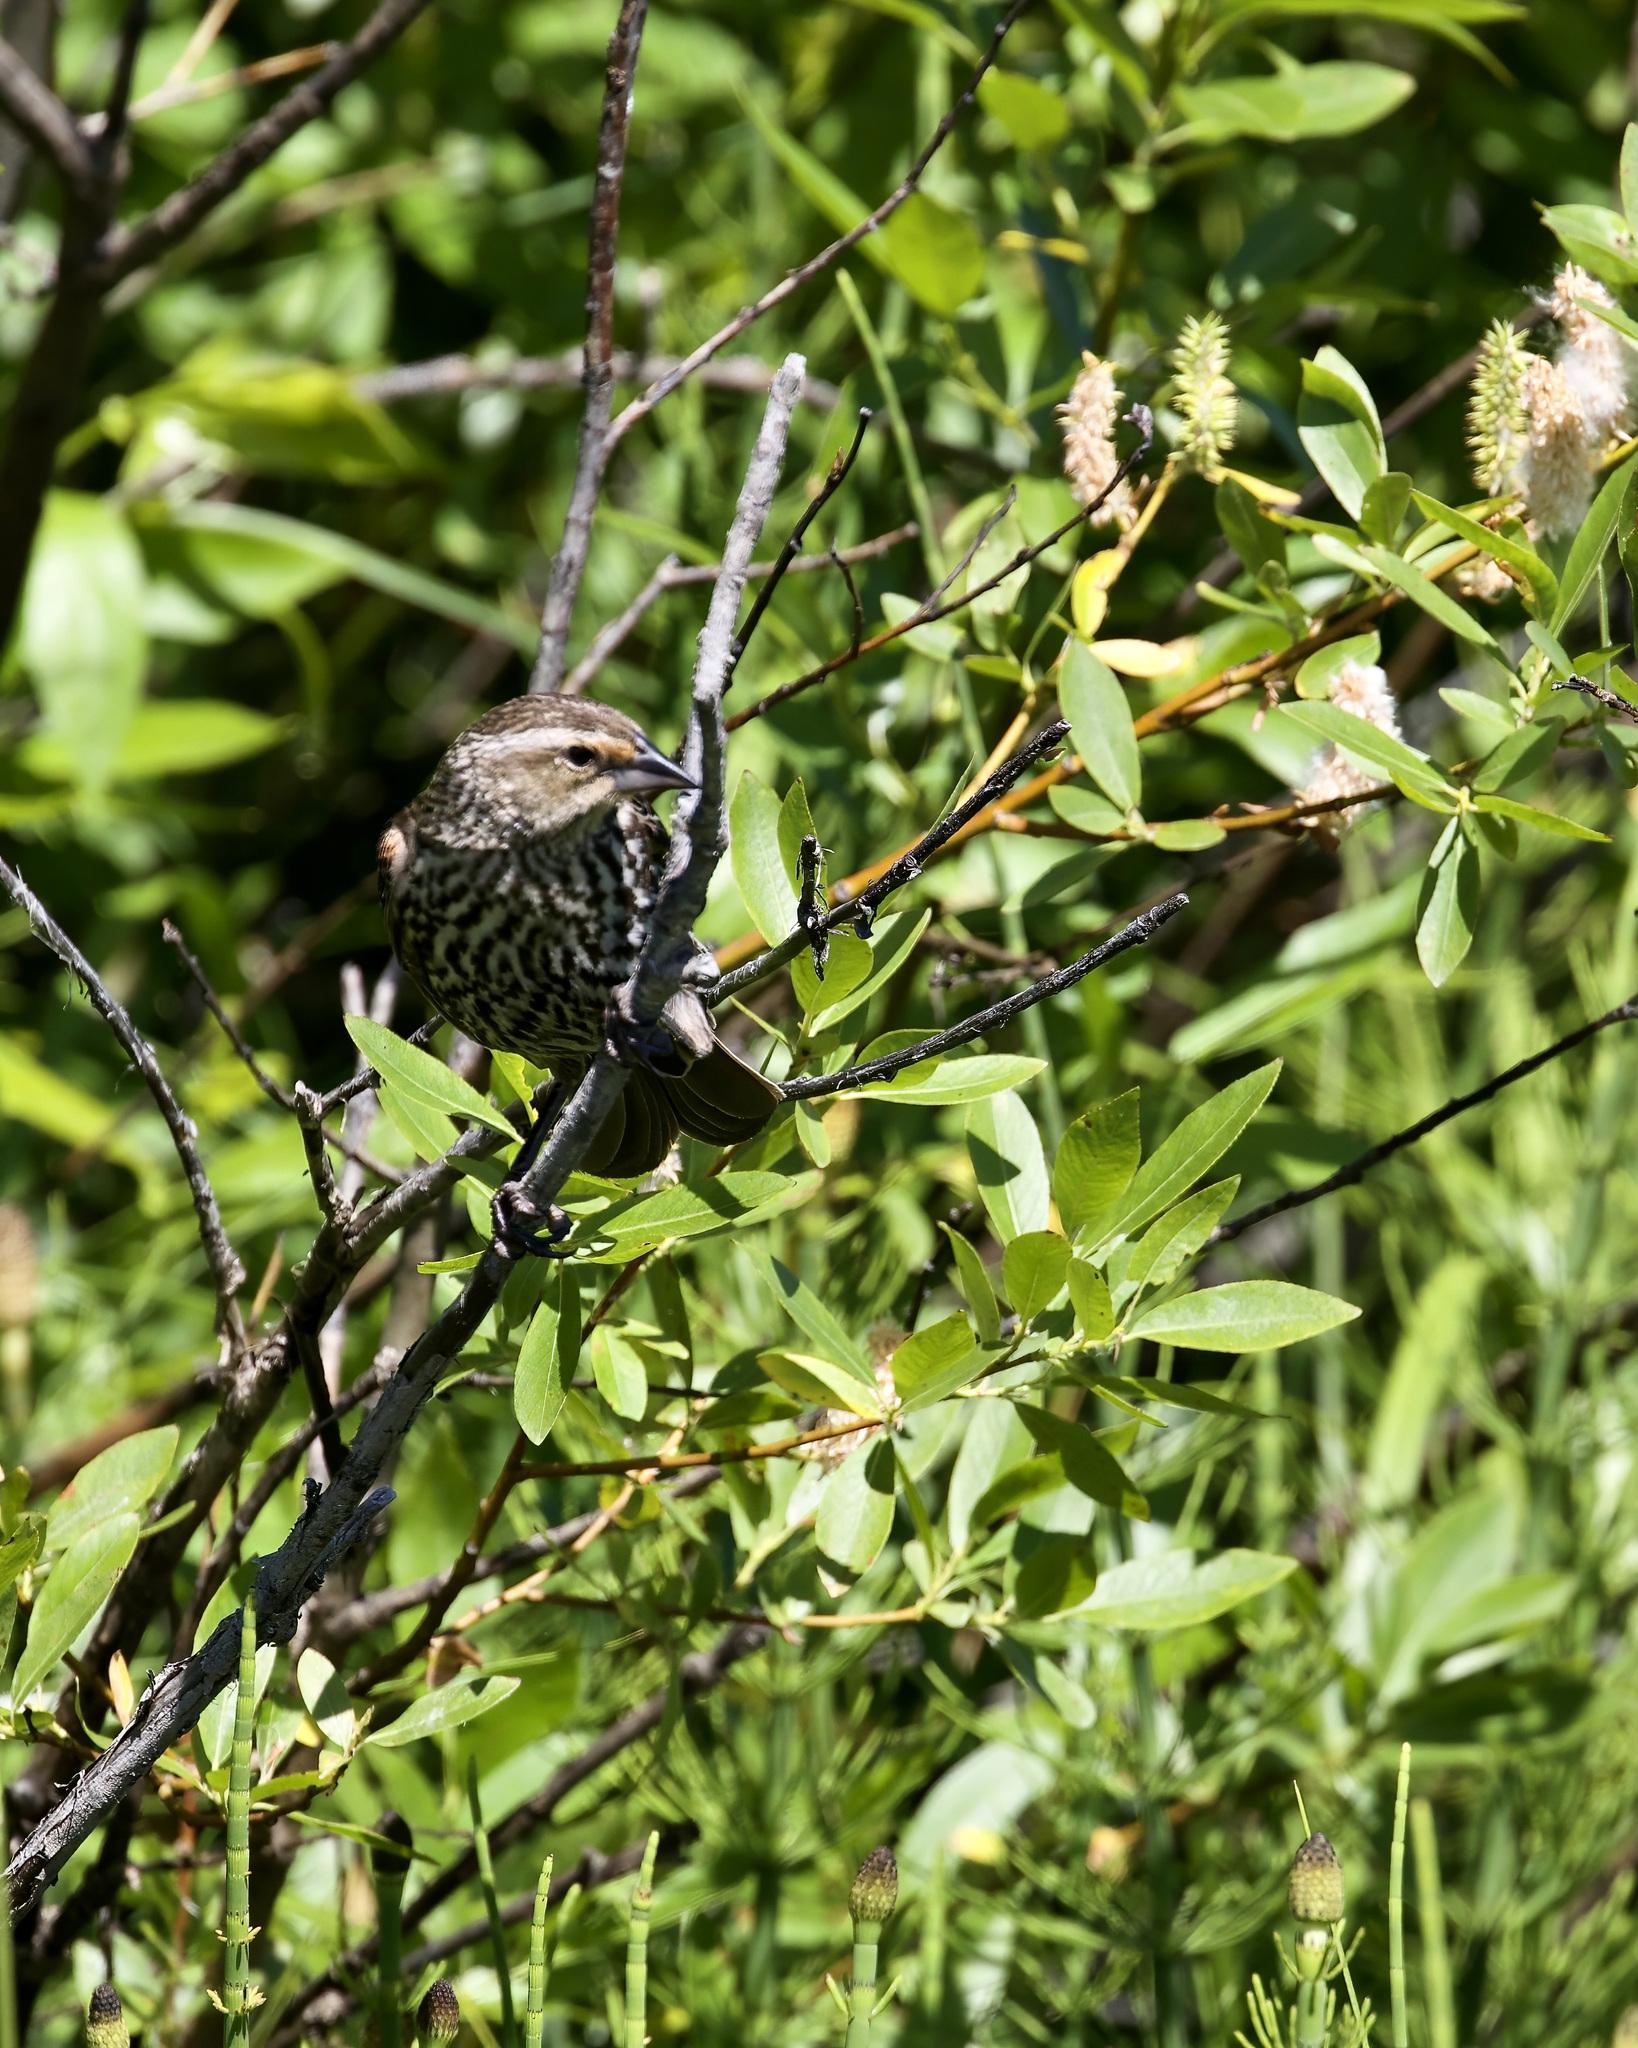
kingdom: Animalia
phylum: Chordata
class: Aves
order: Passeriformes
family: Icteridae
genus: Agelaius
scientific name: Agelaius phoeniceus
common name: Red-winged blackbird
